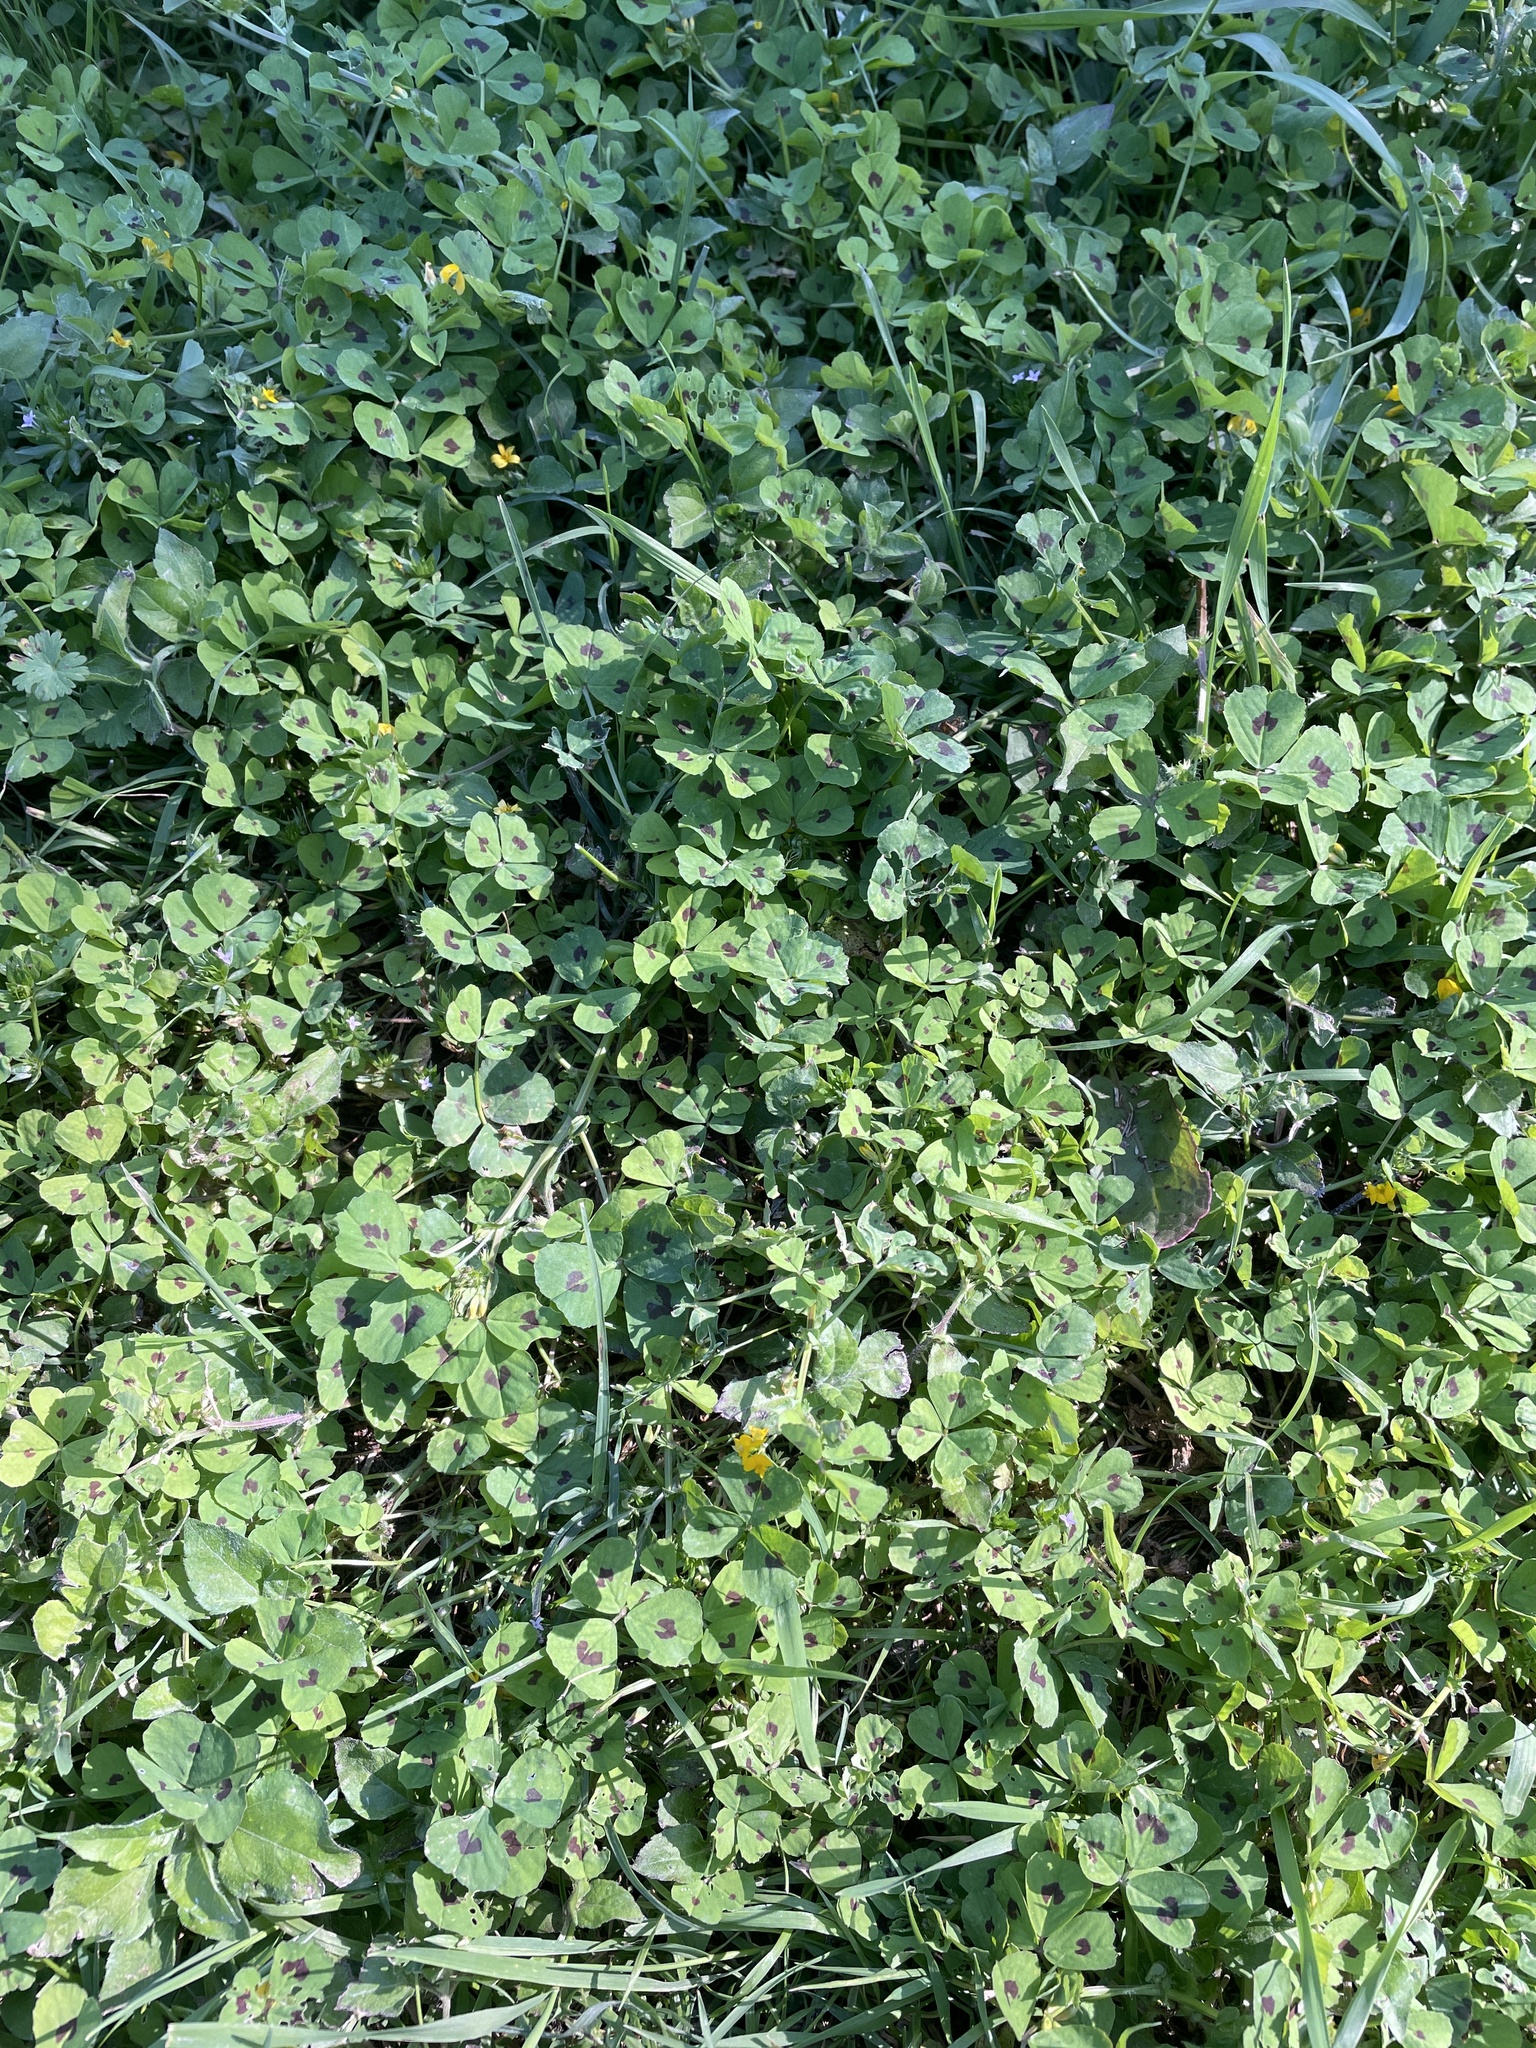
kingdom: Plantae
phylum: Tracheophyta
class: Magnoliopsida
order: Fabales
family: Fabaceae
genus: Medicago
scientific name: Medicago arabica
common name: Spotted medick
